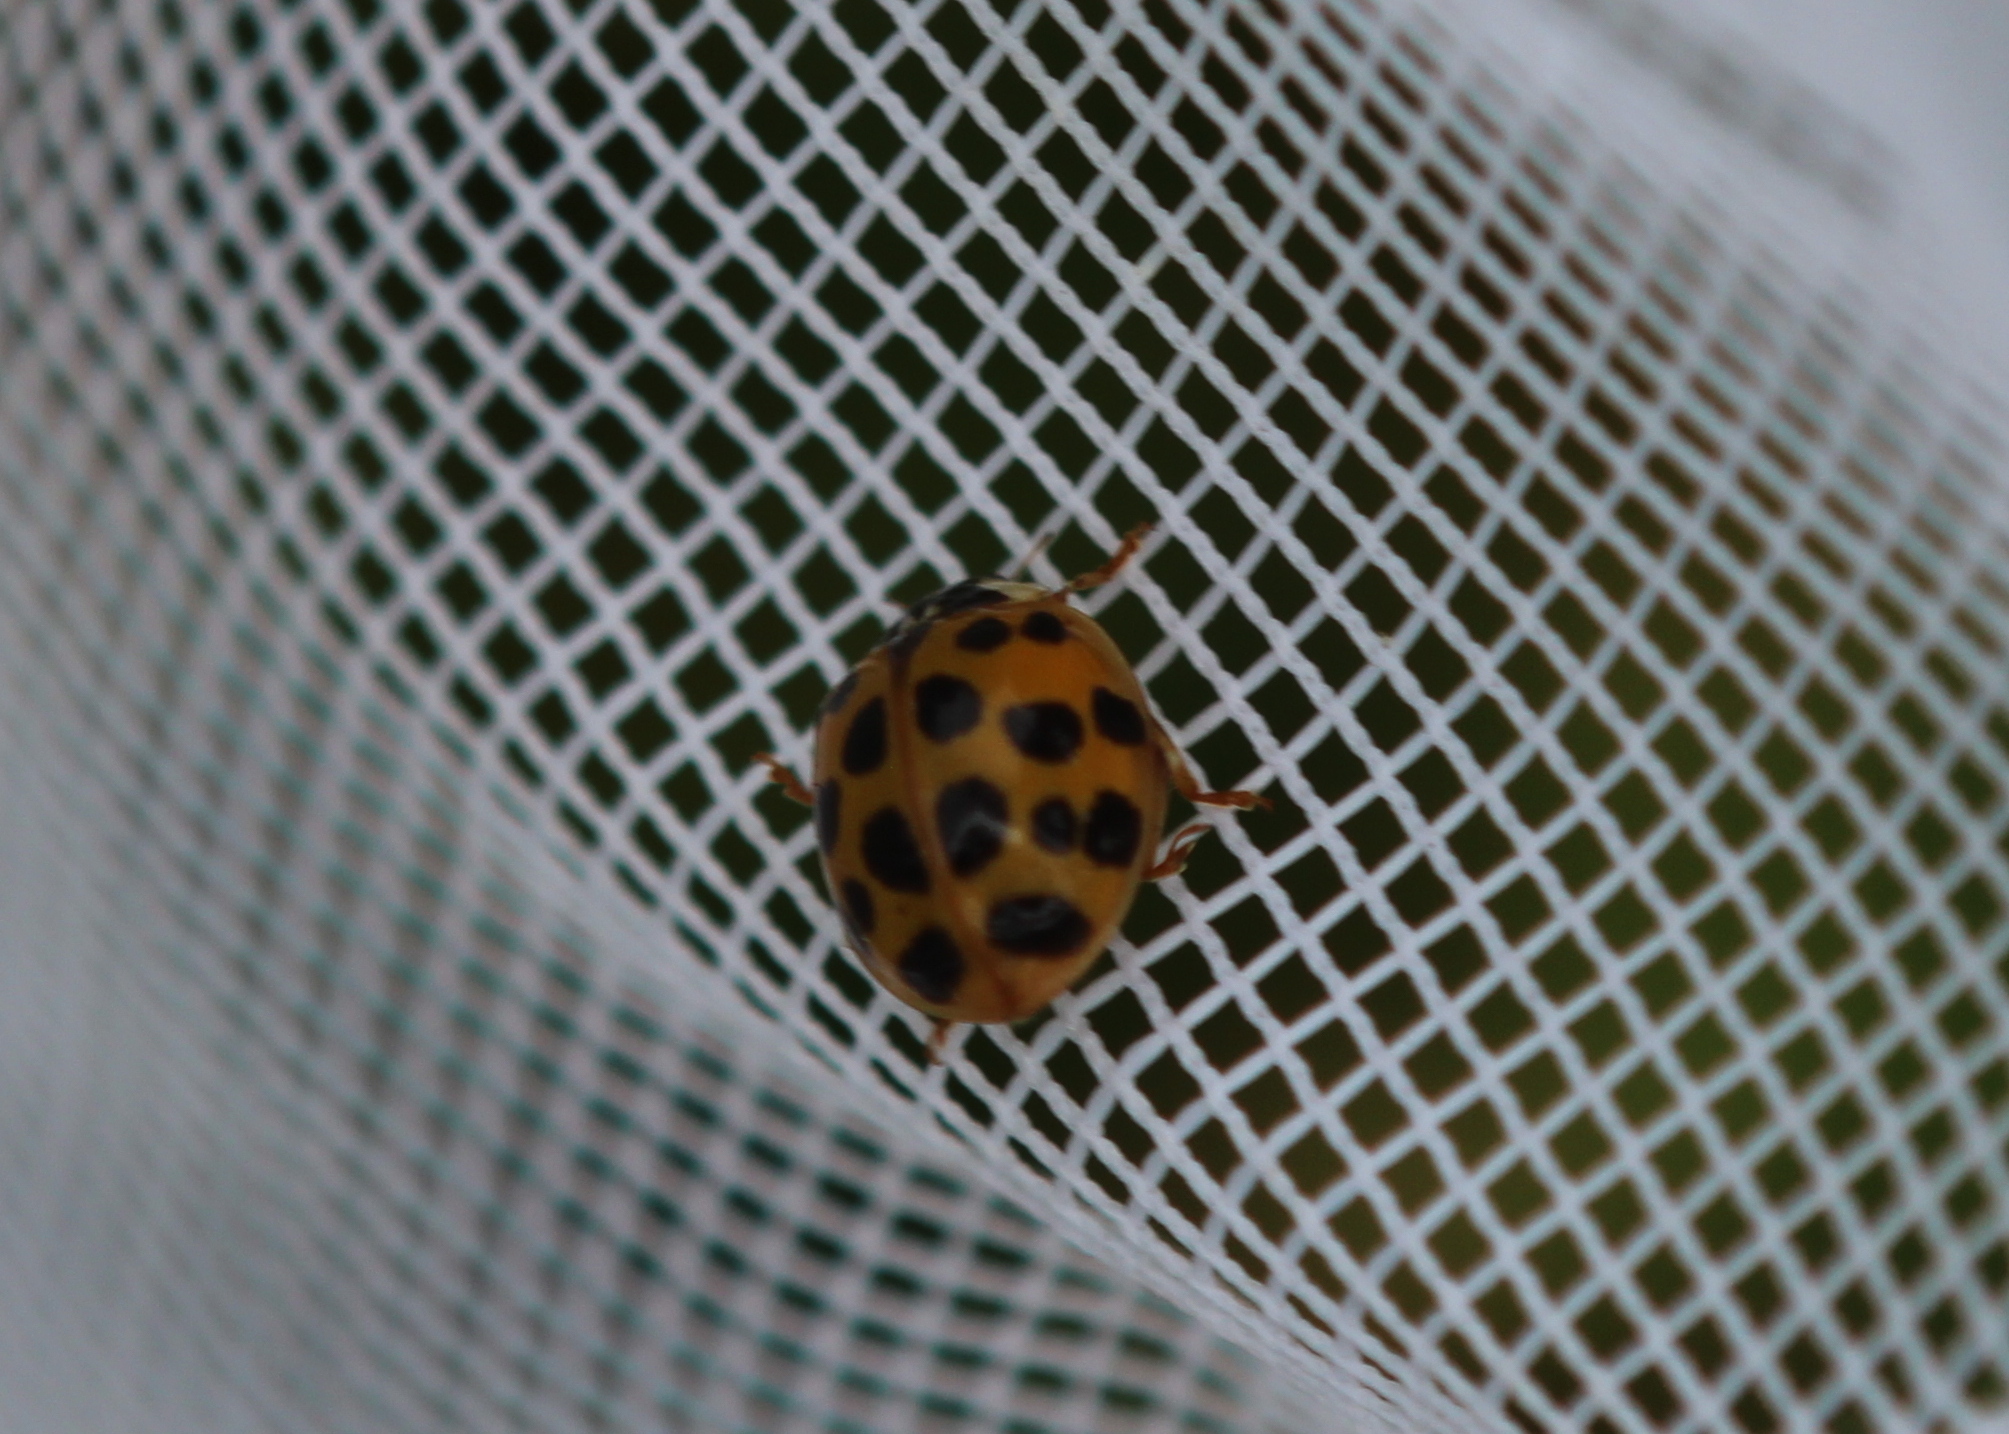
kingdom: Animalia
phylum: Arthropoda
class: Insecta
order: Coleoptera
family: Coccinellidae
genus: Harmonia
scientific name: Harmonia axyridis
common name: Harlequin ladybird
